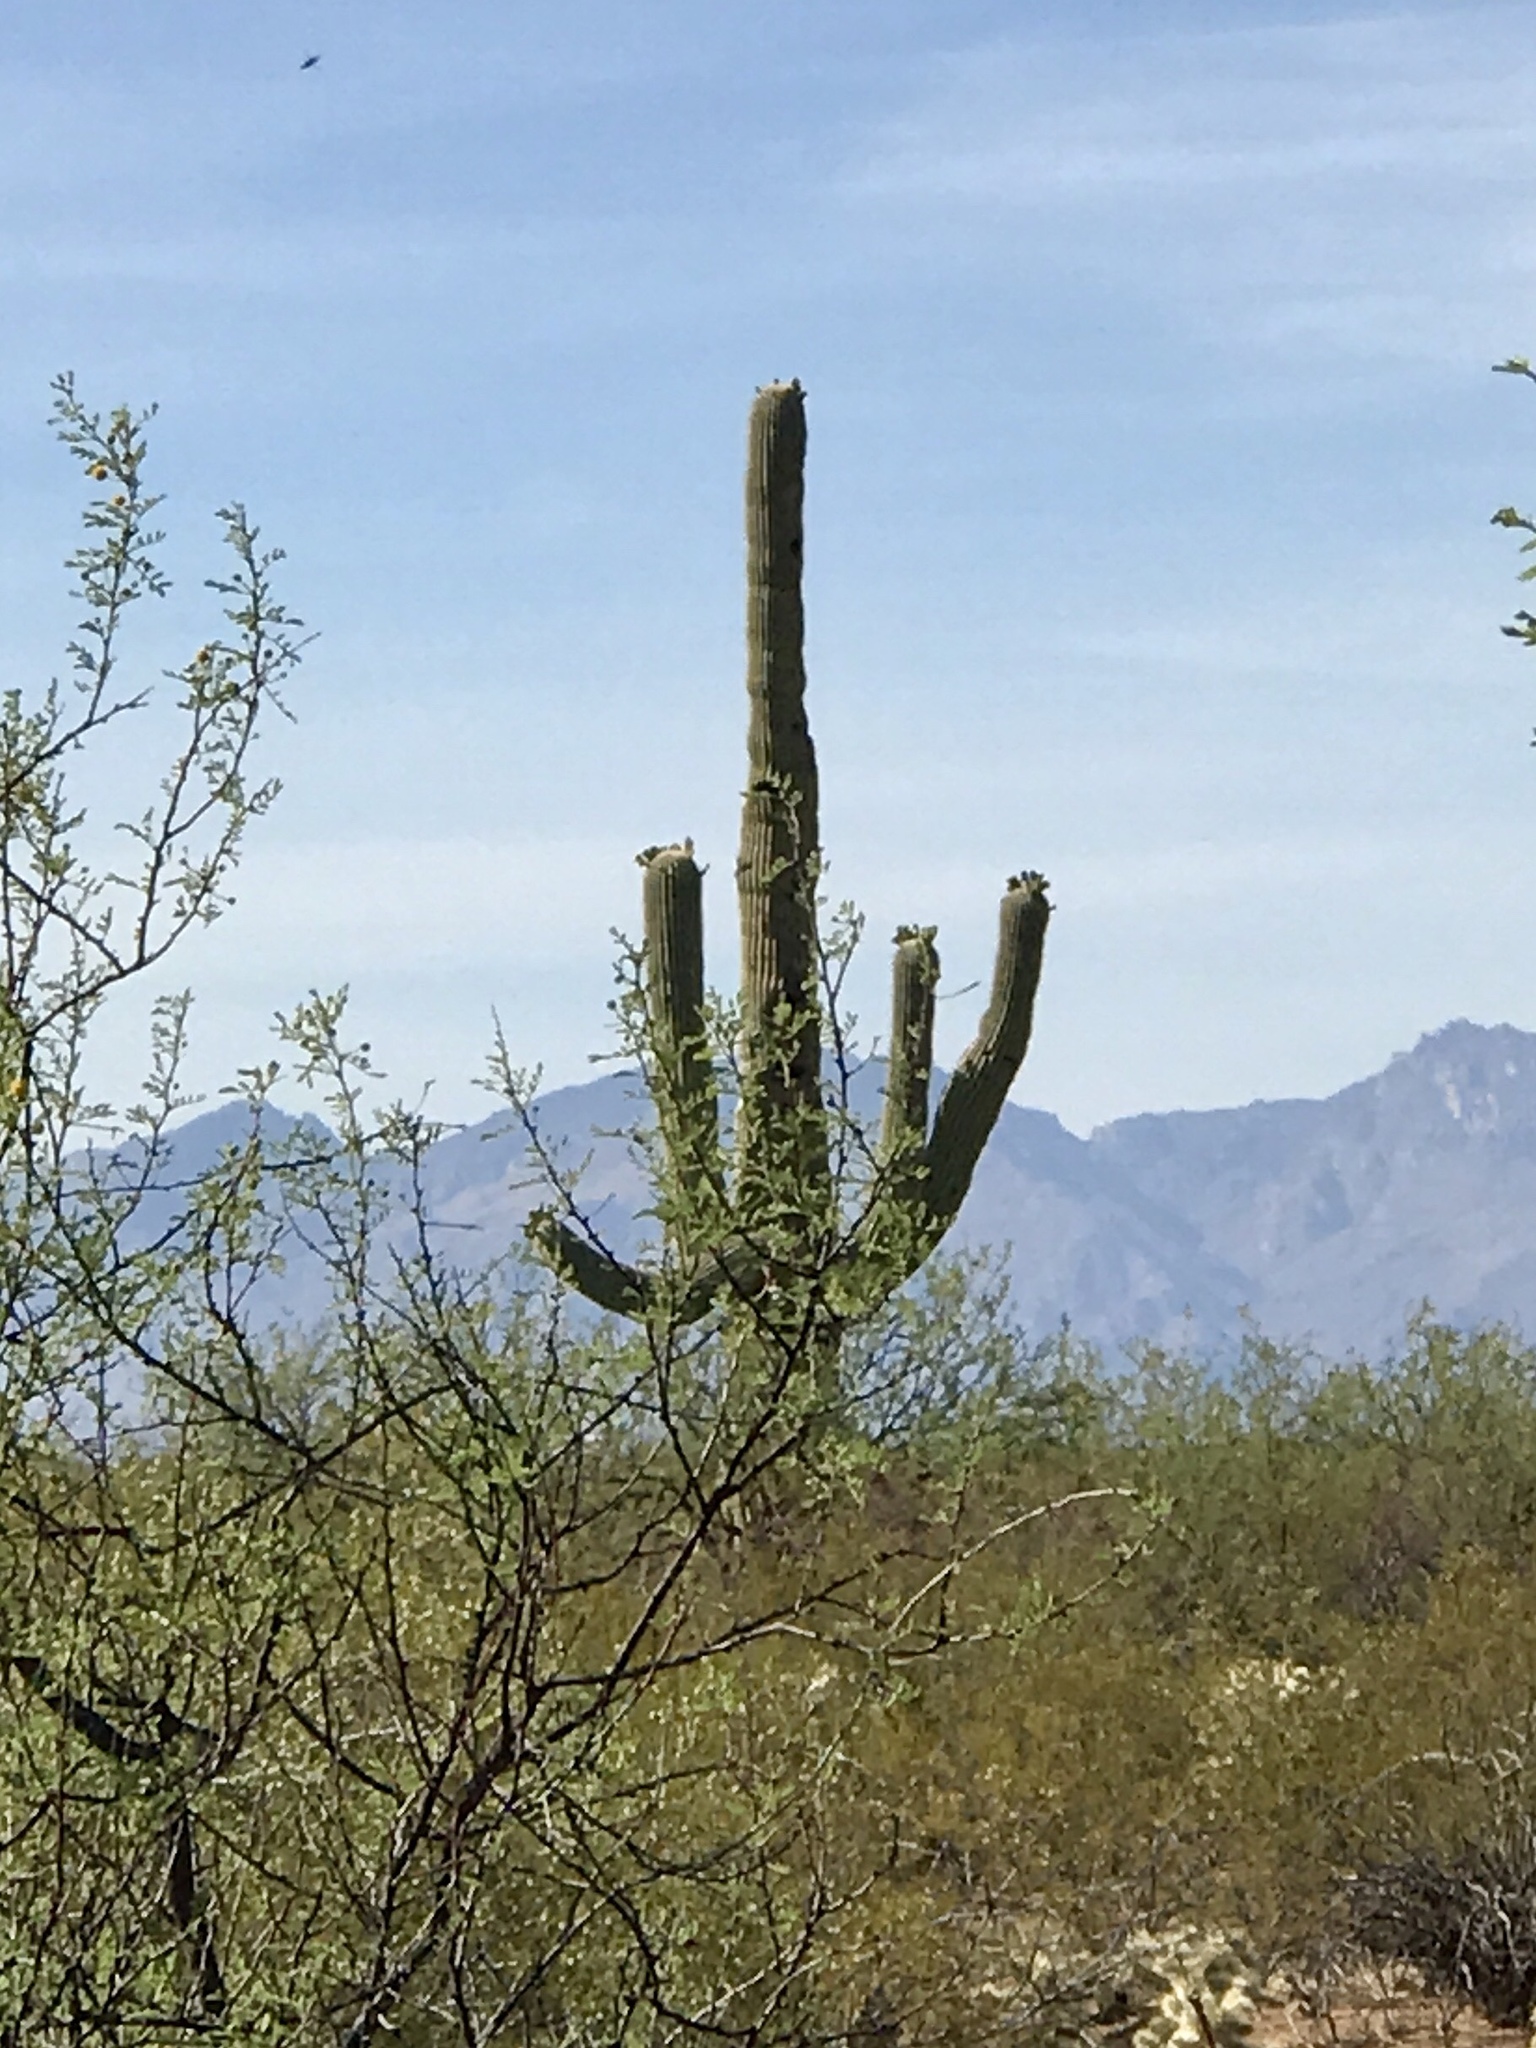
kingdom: Plantae
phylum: Tracheophyta
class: Magnoliopsida
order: Caryophyllales
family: Cactaceae
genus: Carnegiea
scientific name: Carnegiea gigantea
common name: Saguaro
